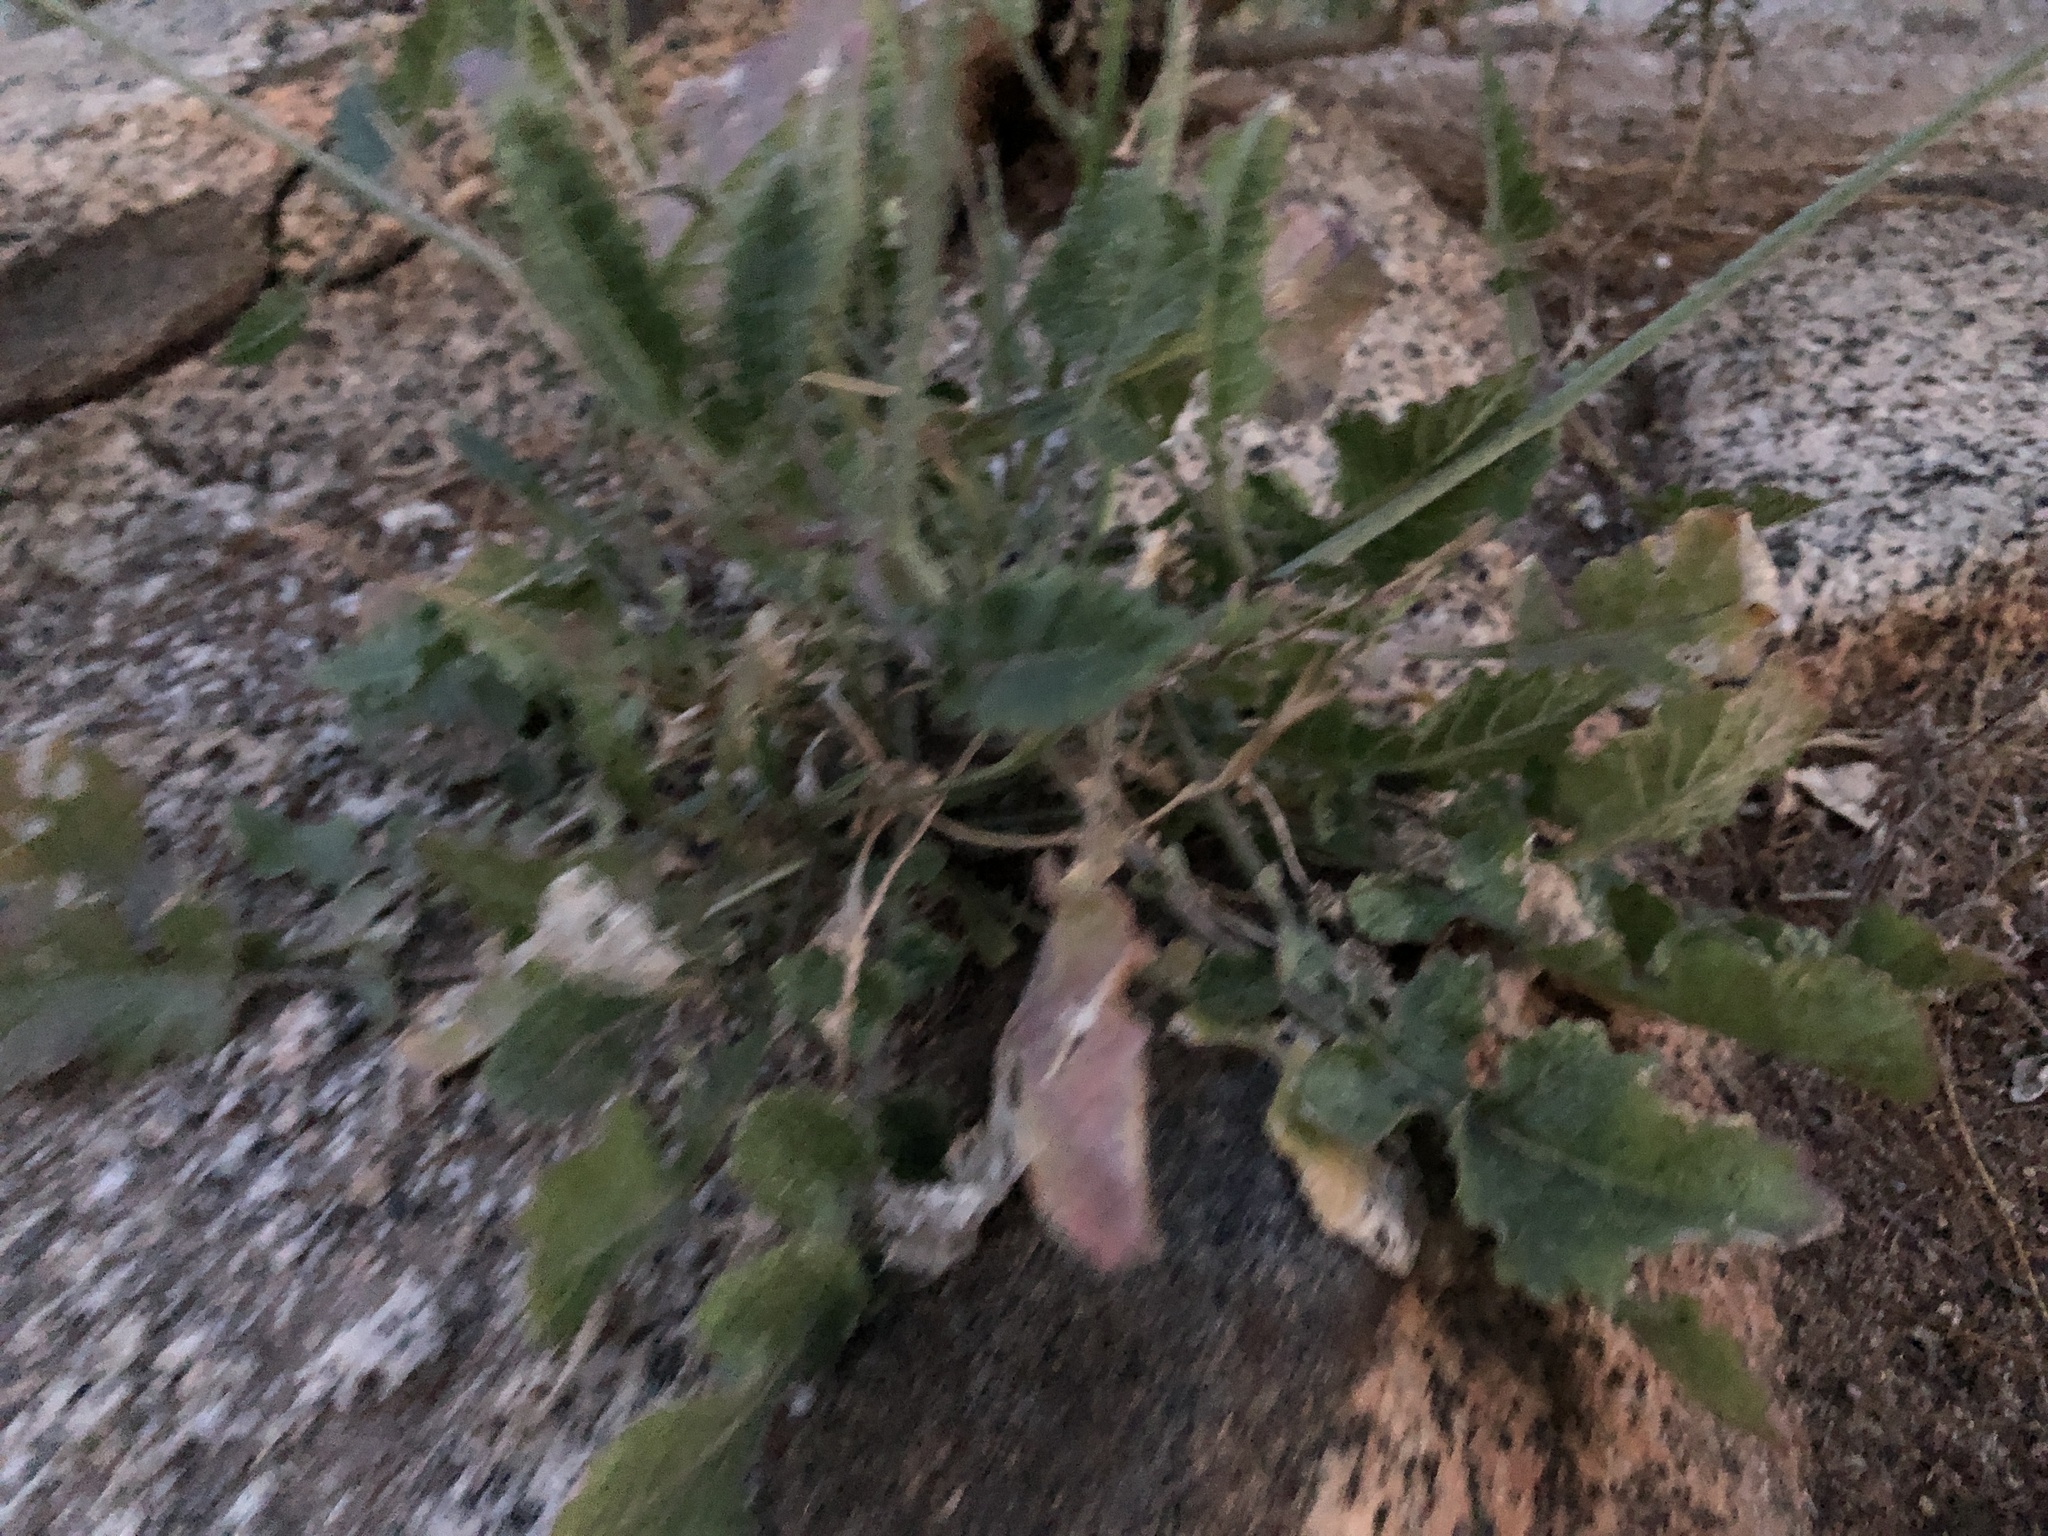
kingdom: Plantae
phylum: Tracheophyta
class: Magnoliopsida
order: Brassicales
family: Brassicaceae
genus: Hirschfeldia
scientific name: Hirschfeldia incana
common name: Hoary mustard
